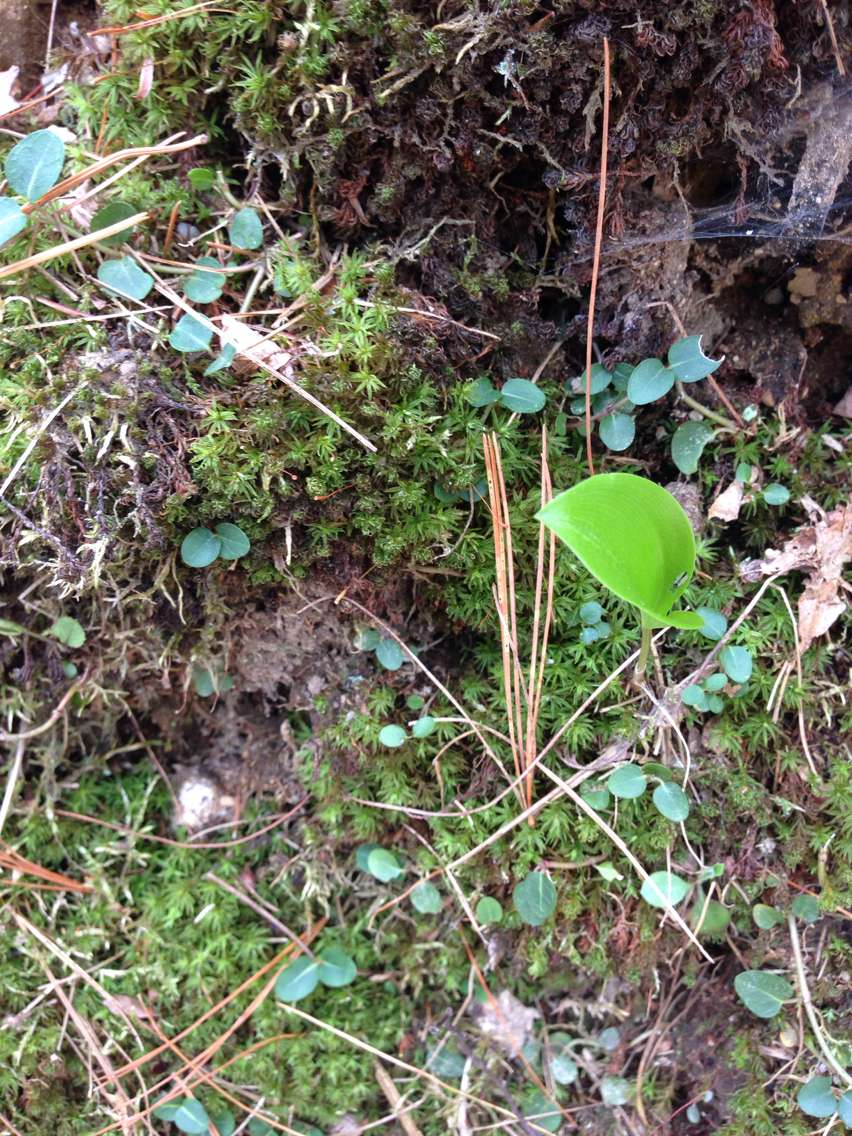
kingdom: Plantae
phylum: Tracheophyta
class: Magnoliopsida
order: Gentianales
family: Rubiaceae
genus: Mitchella
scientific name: Mitchella repens
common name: Partridge-berry
